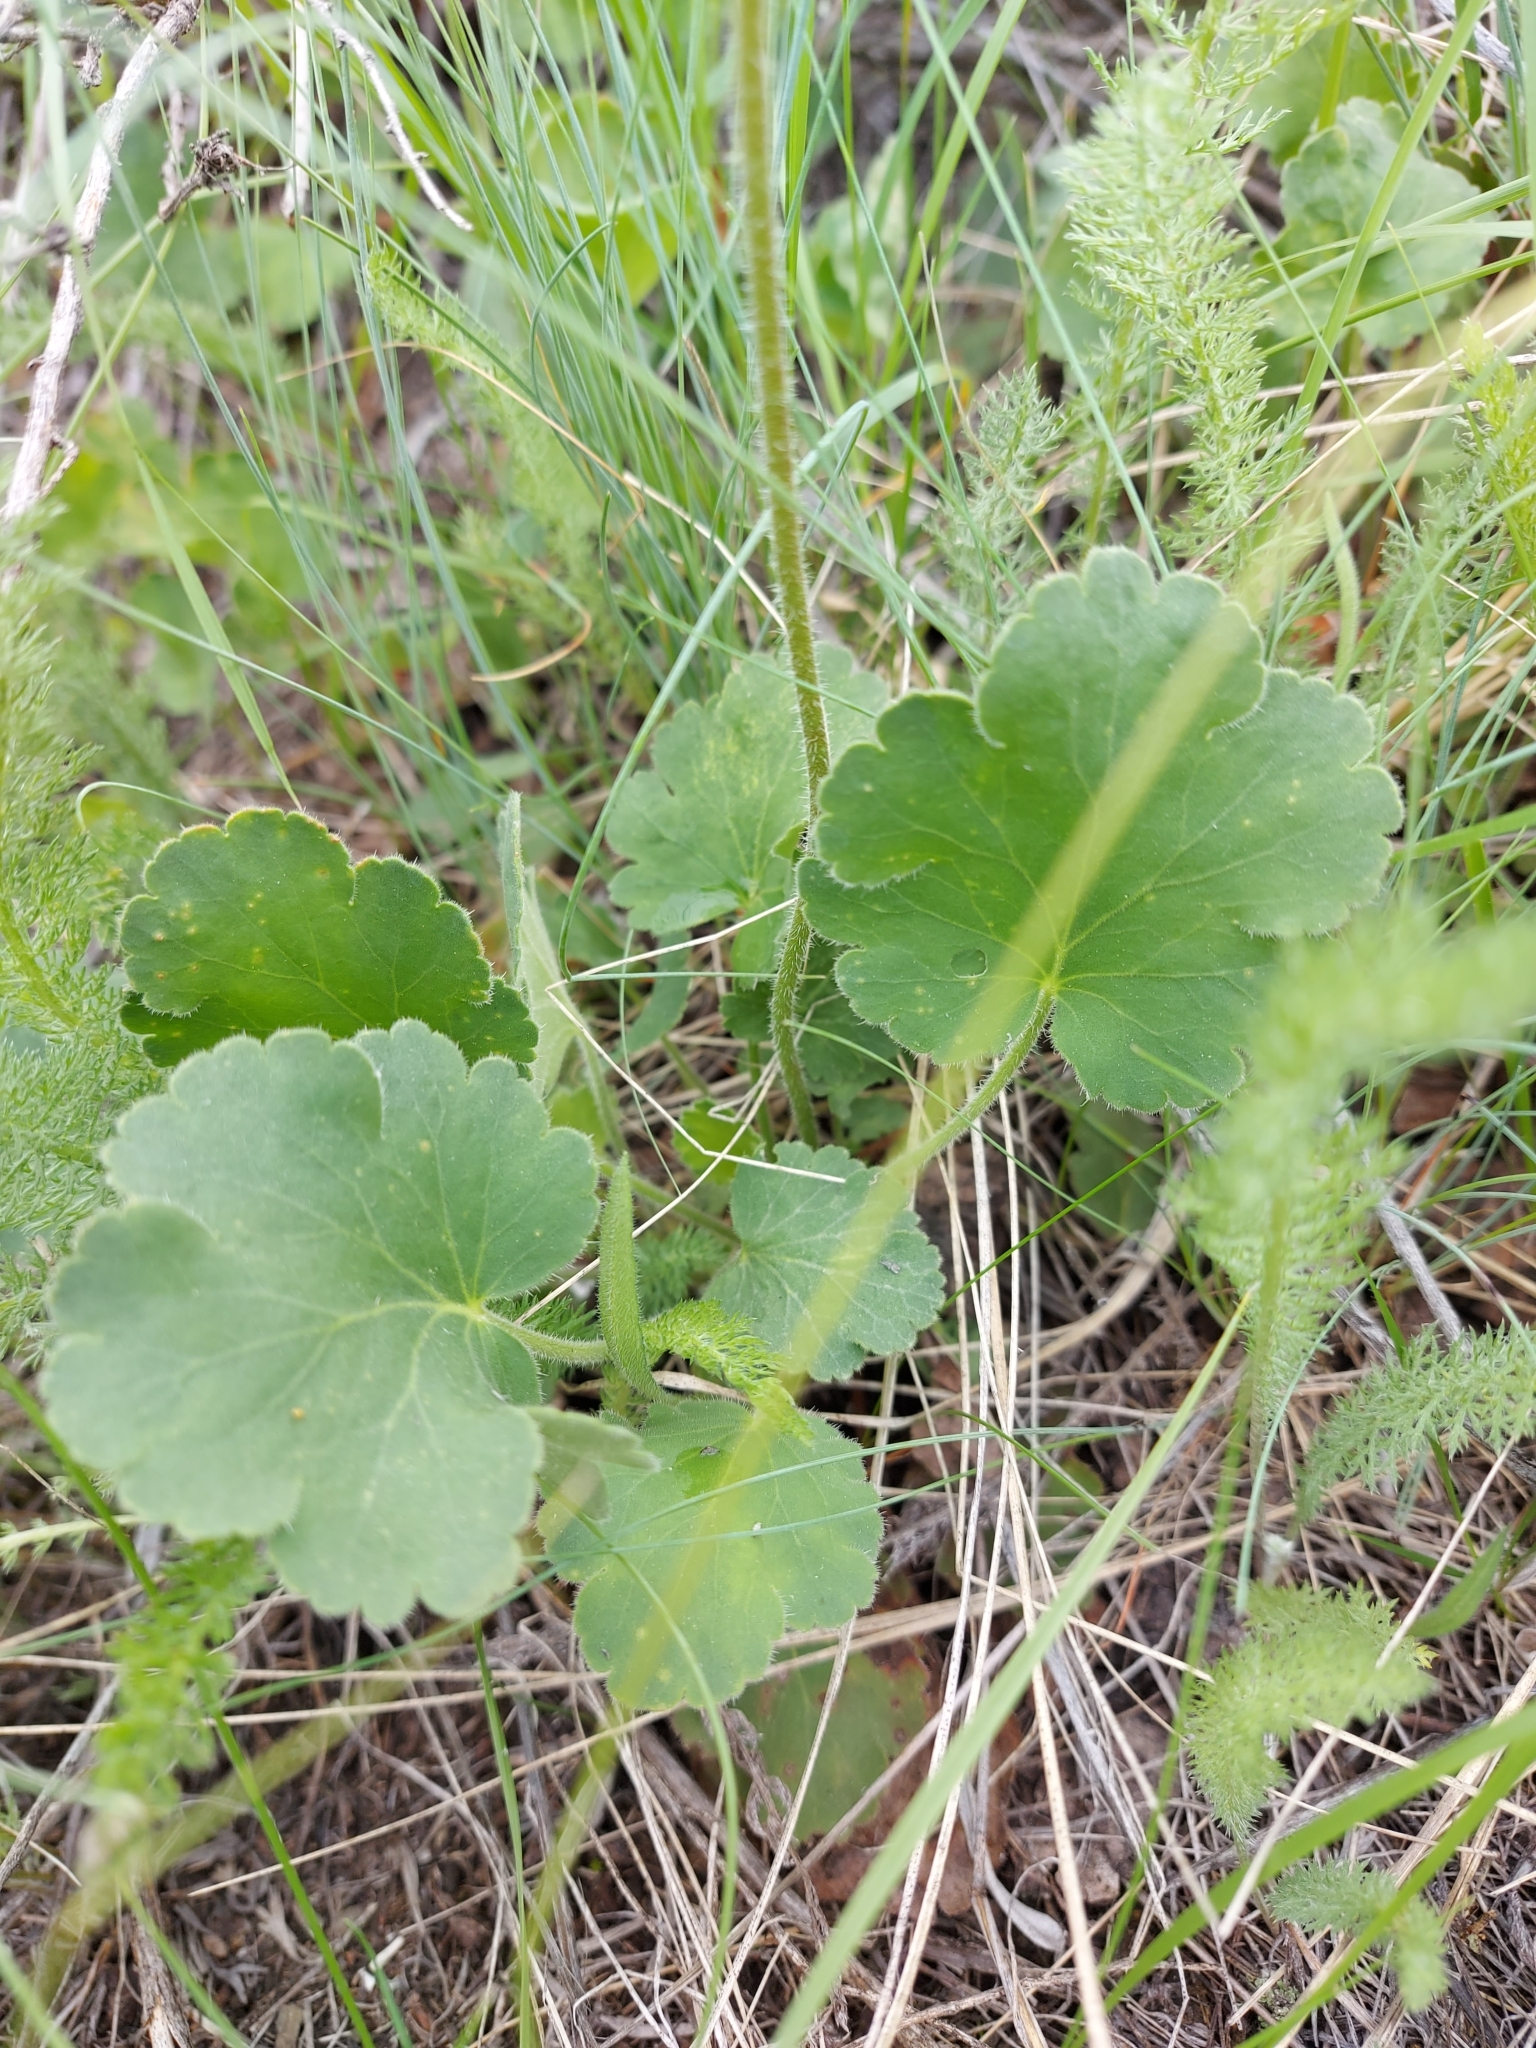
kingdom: Plantae
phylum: Tracheophyta
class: Magnoliopsida
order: Saxifragales
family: Saxifragaceae
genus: Heuchera
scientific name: Heuchera cylindrica
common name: Mat alumroot
